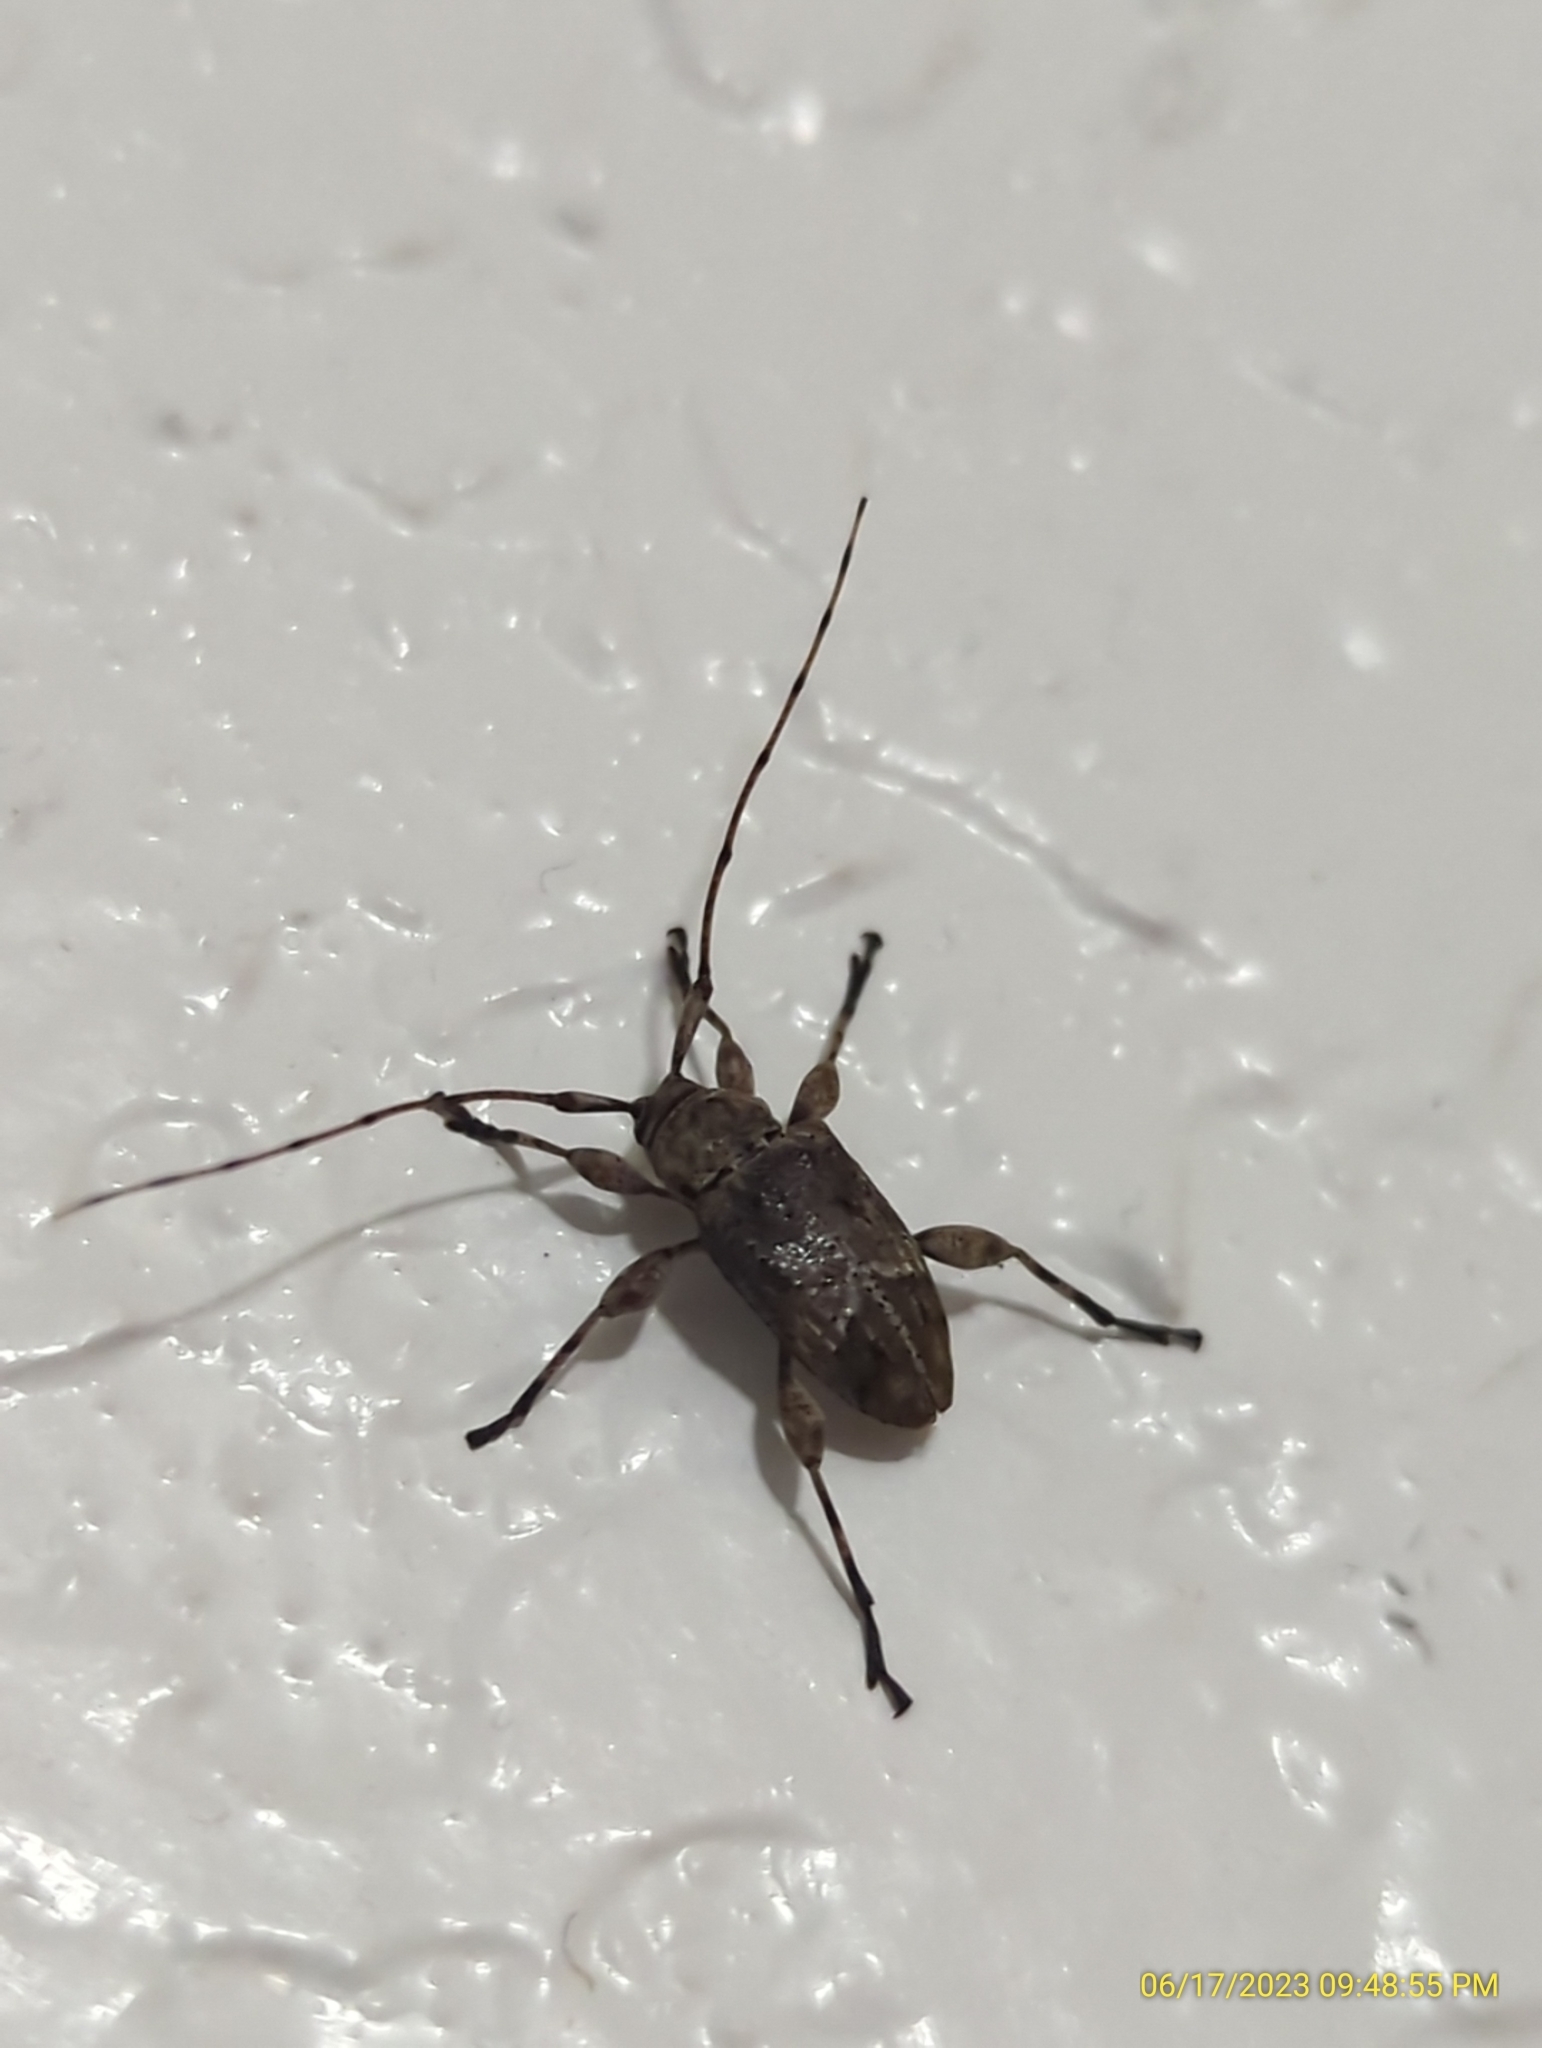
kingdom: Animalia
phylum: Arthropoda
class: Insecta
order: Coleoptera
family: Cerambycidae
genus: Leptostylopsis
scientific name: Leptostylopsis planidorsus
